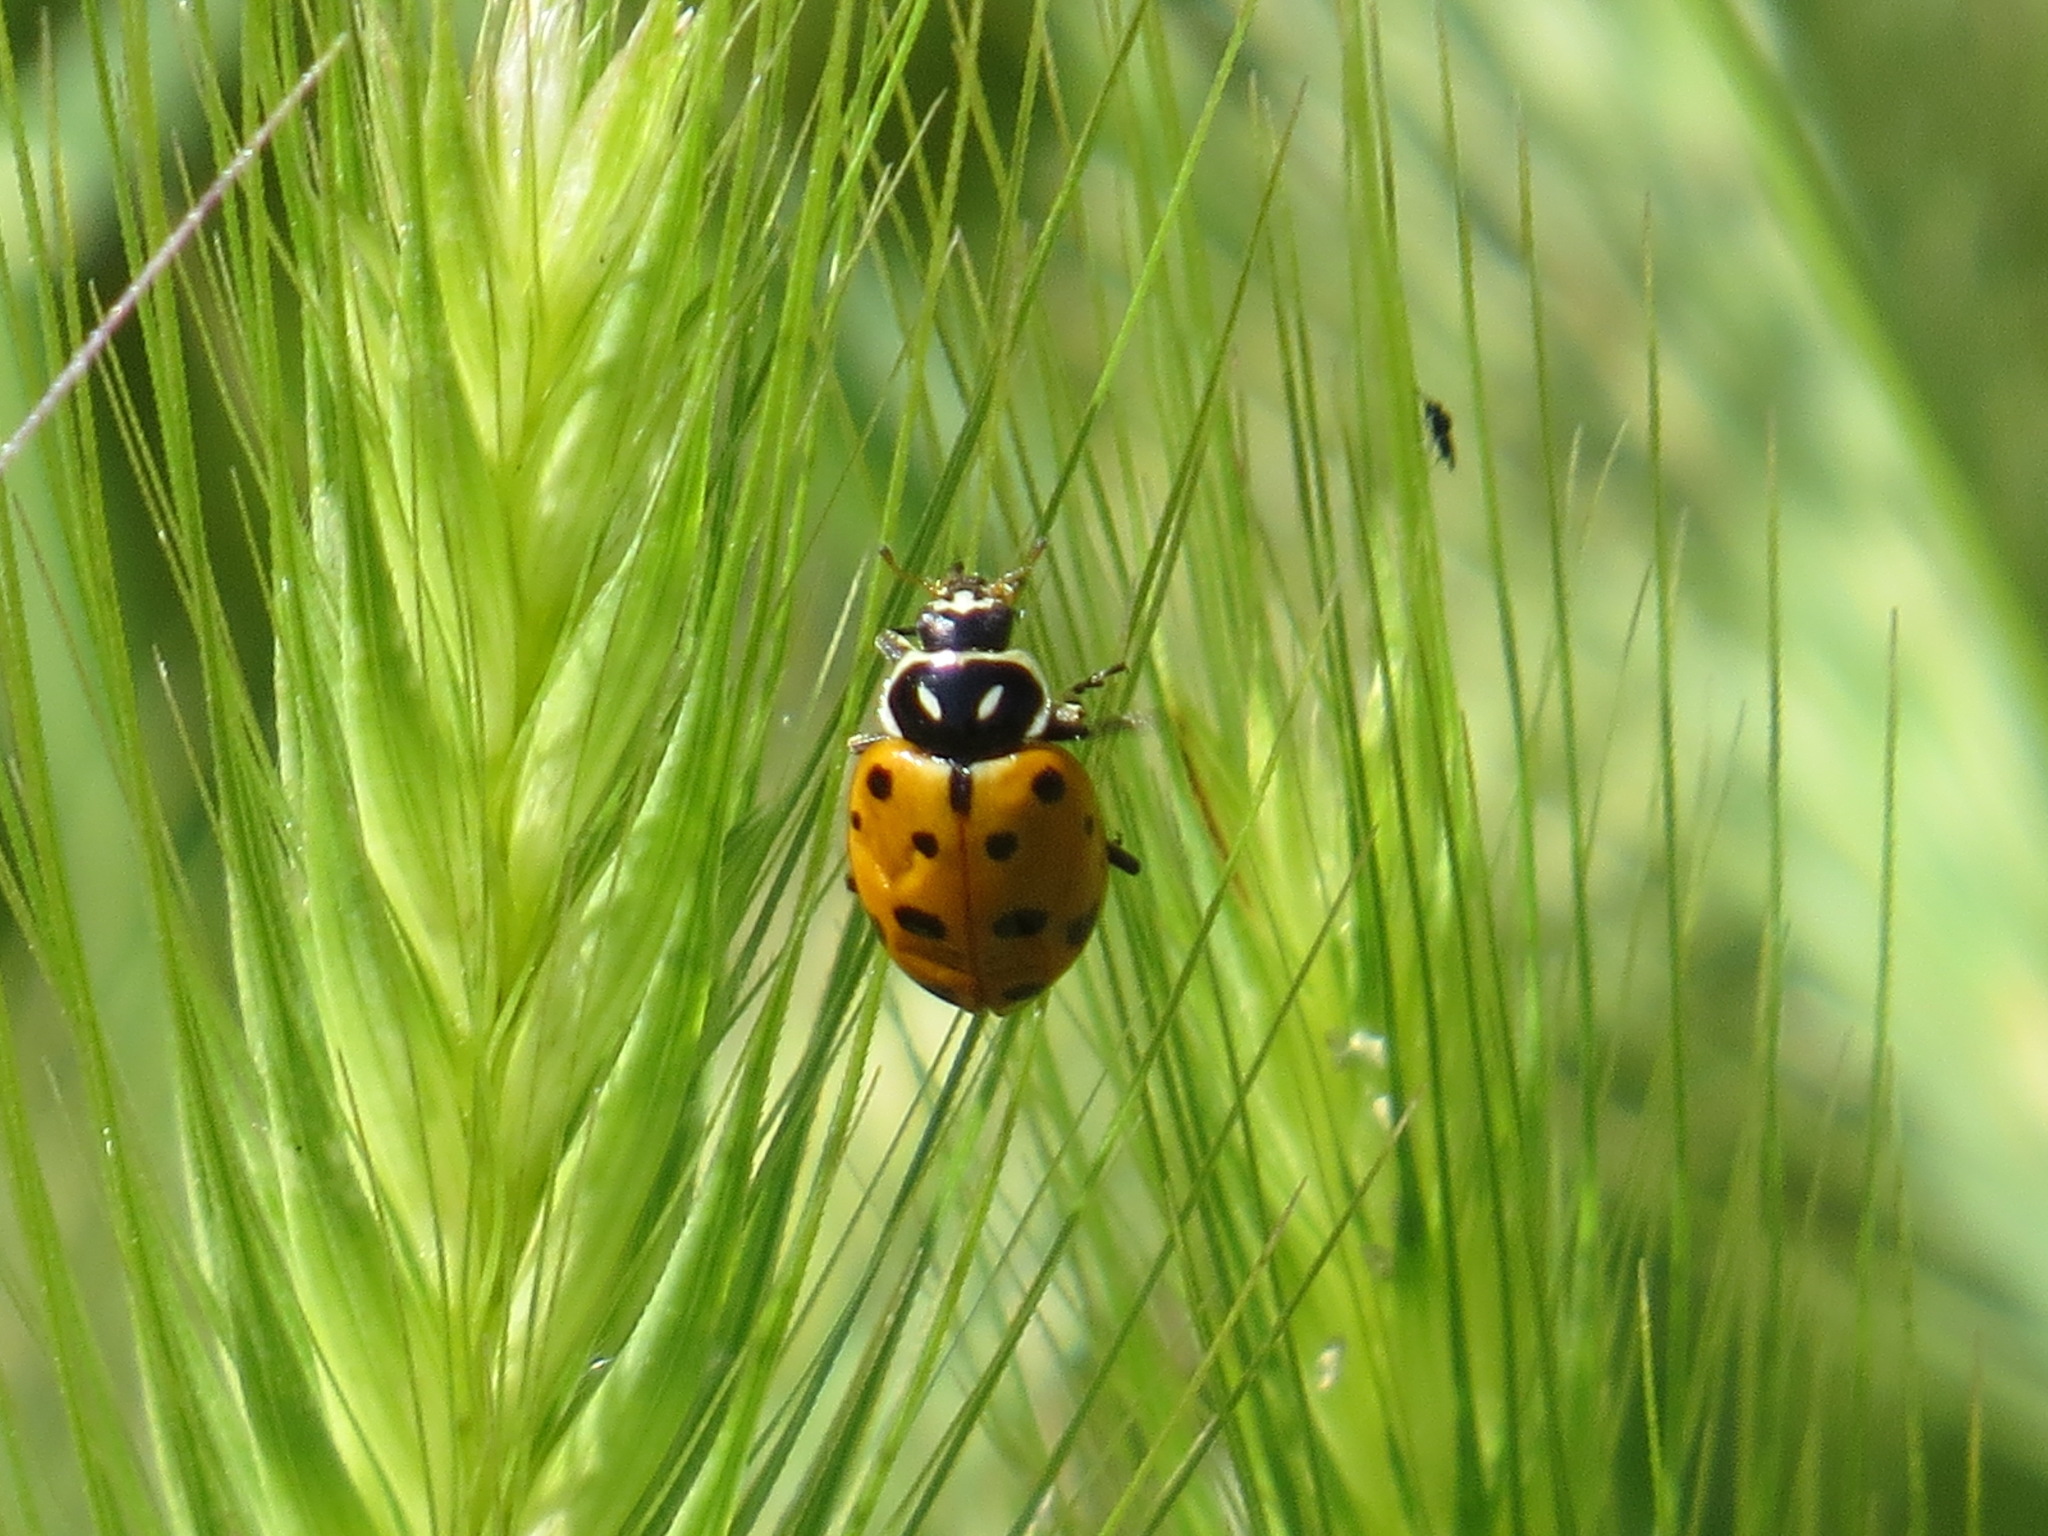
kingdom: Animalia
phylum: Arthropoda
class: Insecta
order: Coleoptera
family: Coccinellidae
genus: Hippodamia
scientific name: Hippodamia convergens
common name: Convergent lady beetle
